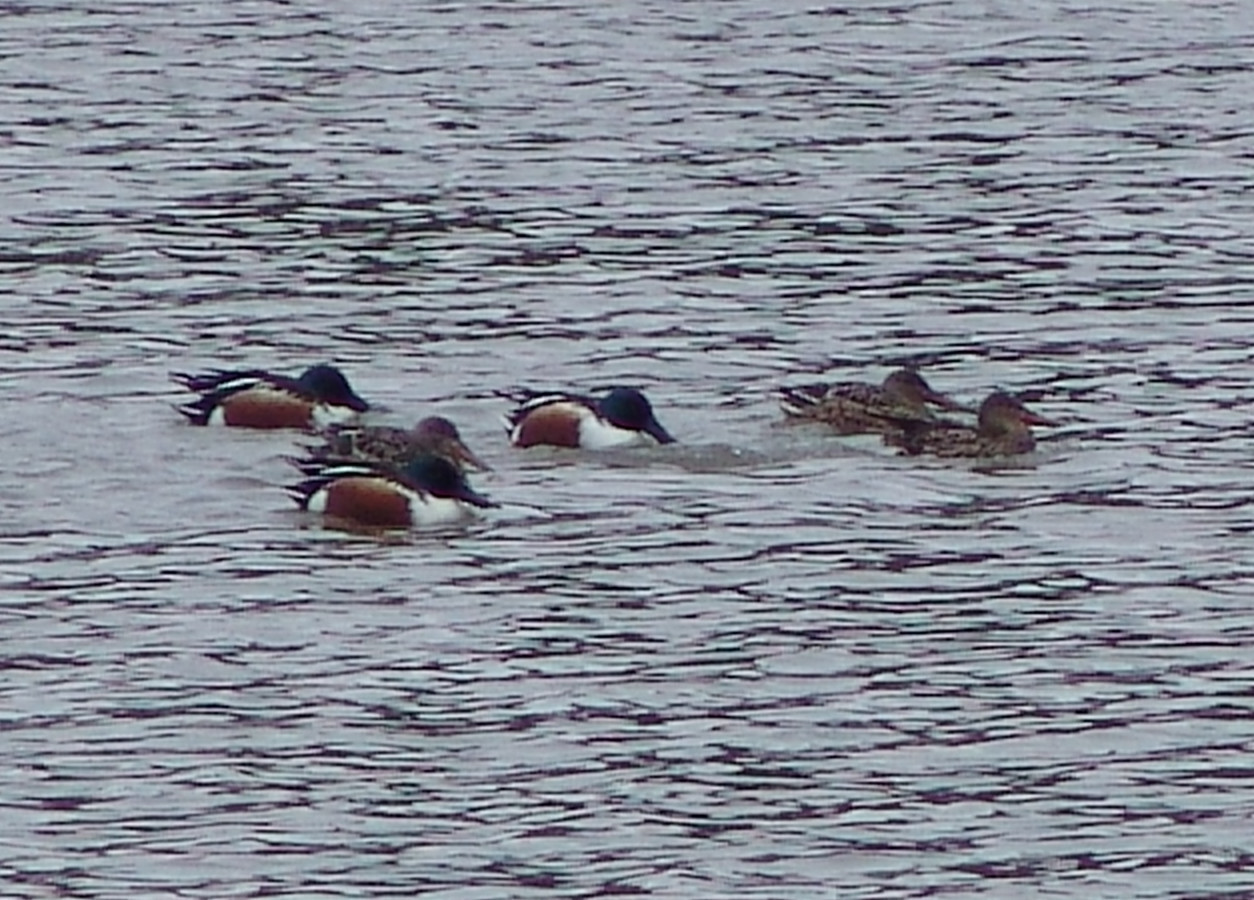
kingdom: Animalia
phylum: Chordata
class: Aves
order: Anseriformes
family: Anatidae
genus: Spatula
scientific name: Spatula clypeata
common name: Northern shoveler
